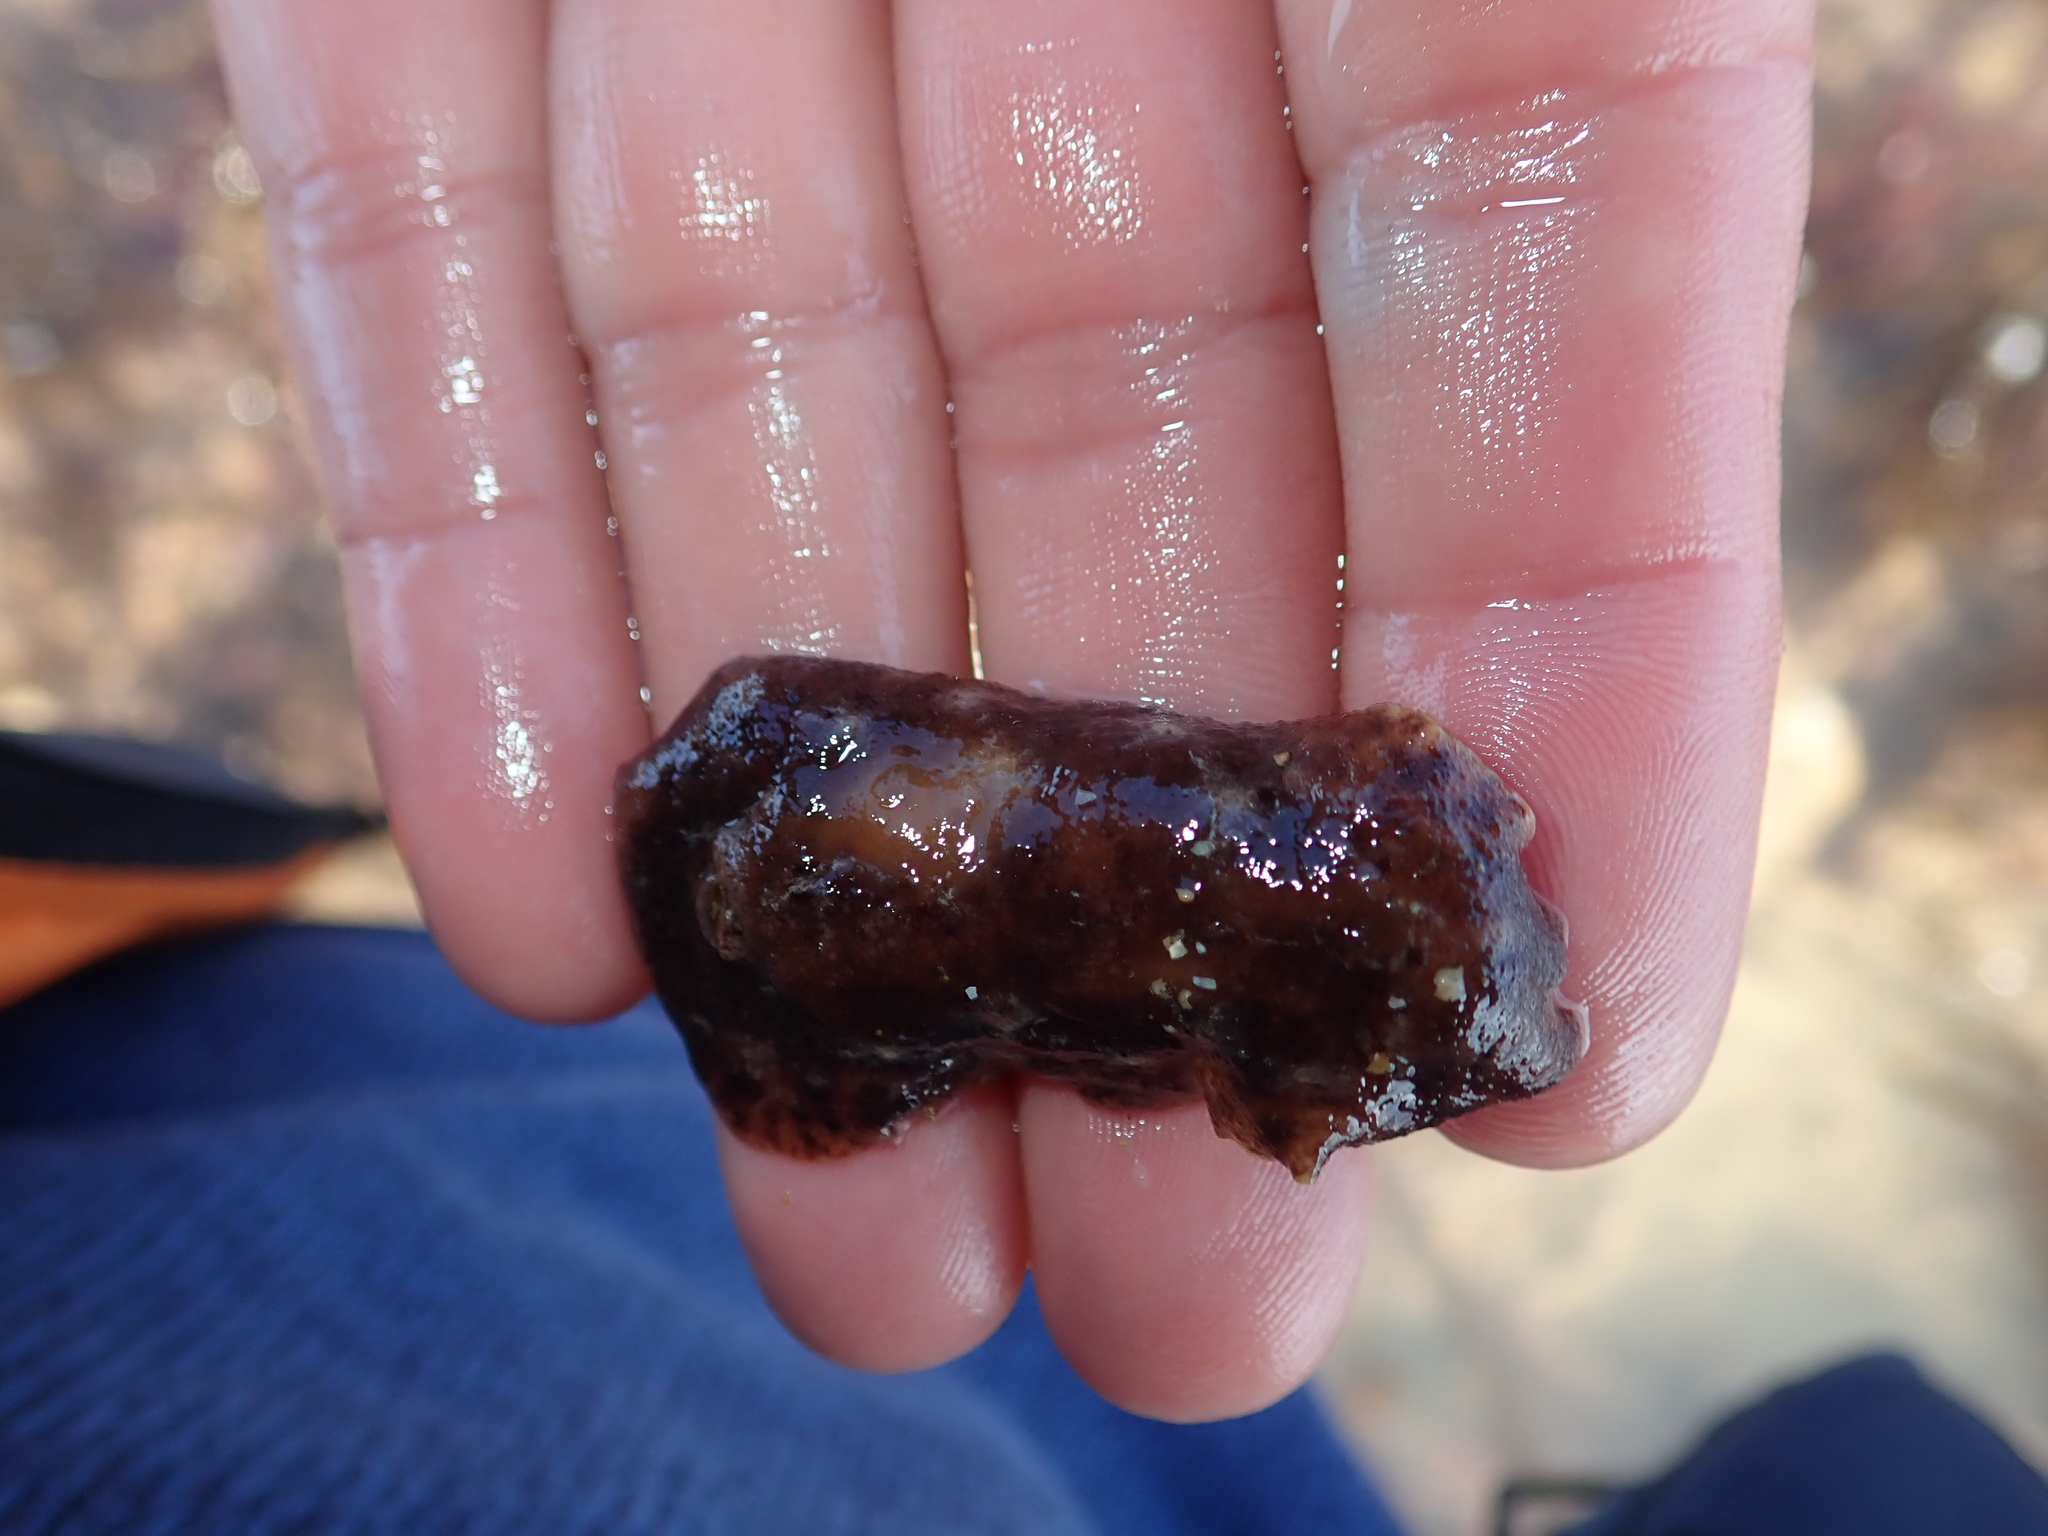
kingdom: Animalia
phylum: Mollusca
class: Gastropoda
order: Nudibranchia
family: Discodorididae
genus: Geitodoris
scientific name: Geitodoris planata
